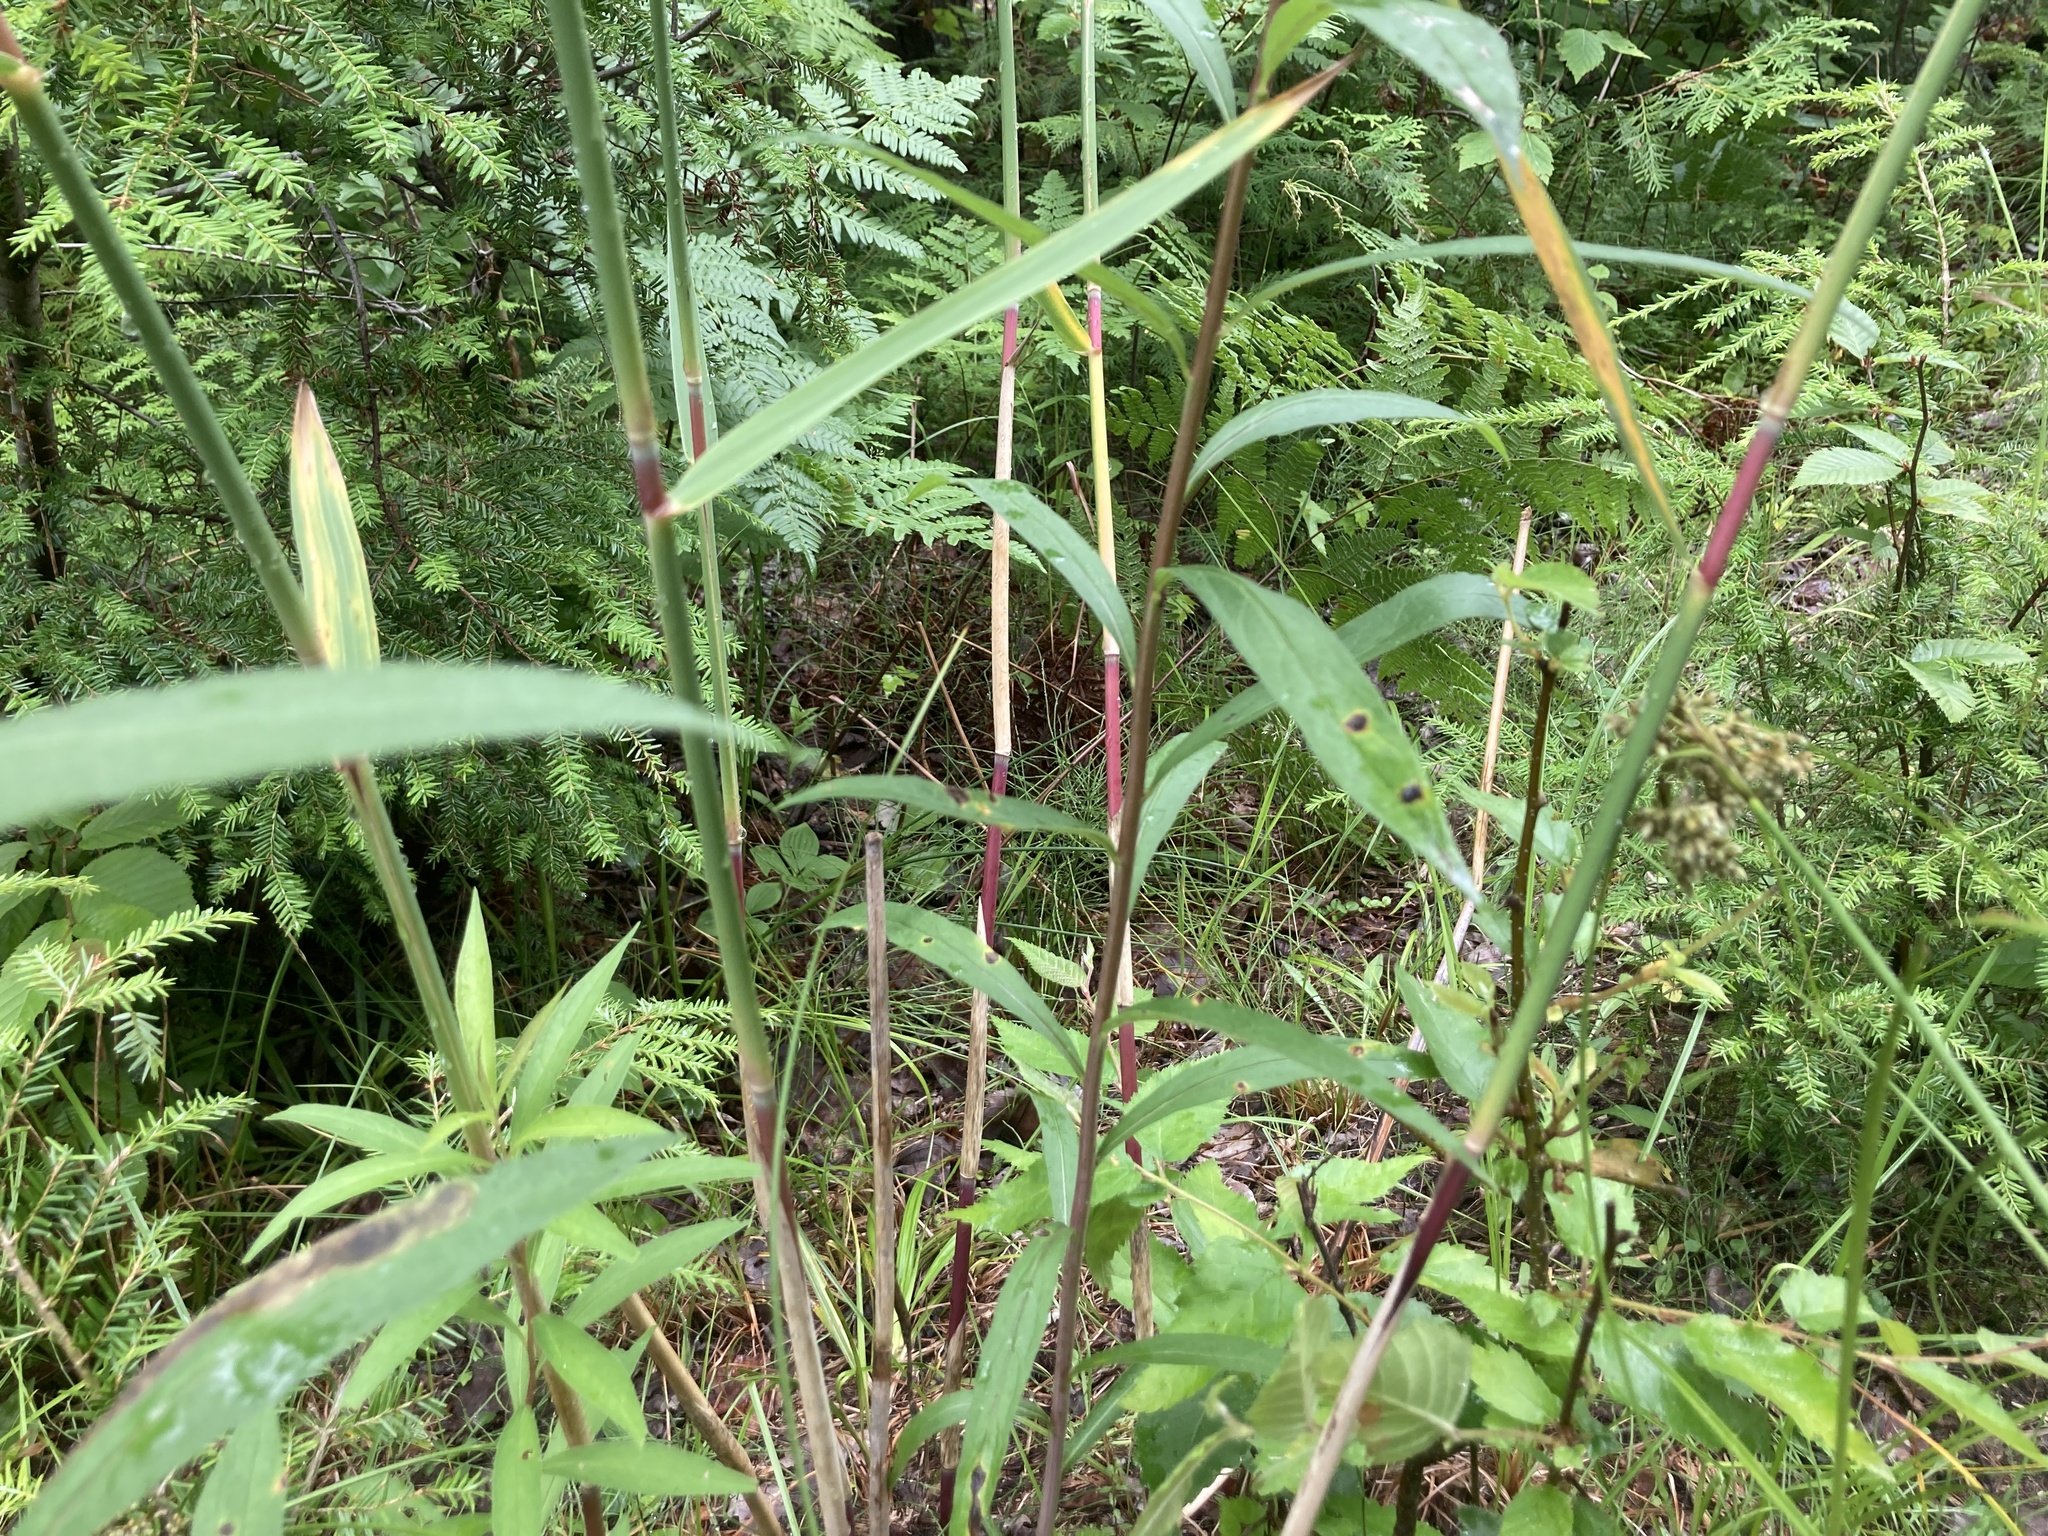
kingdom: Plantae
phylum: Tracheophyta
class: Liliopsida
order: Poales
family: Poaceae
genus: Phragmites
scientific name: Phragmites australis
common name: Common reed
